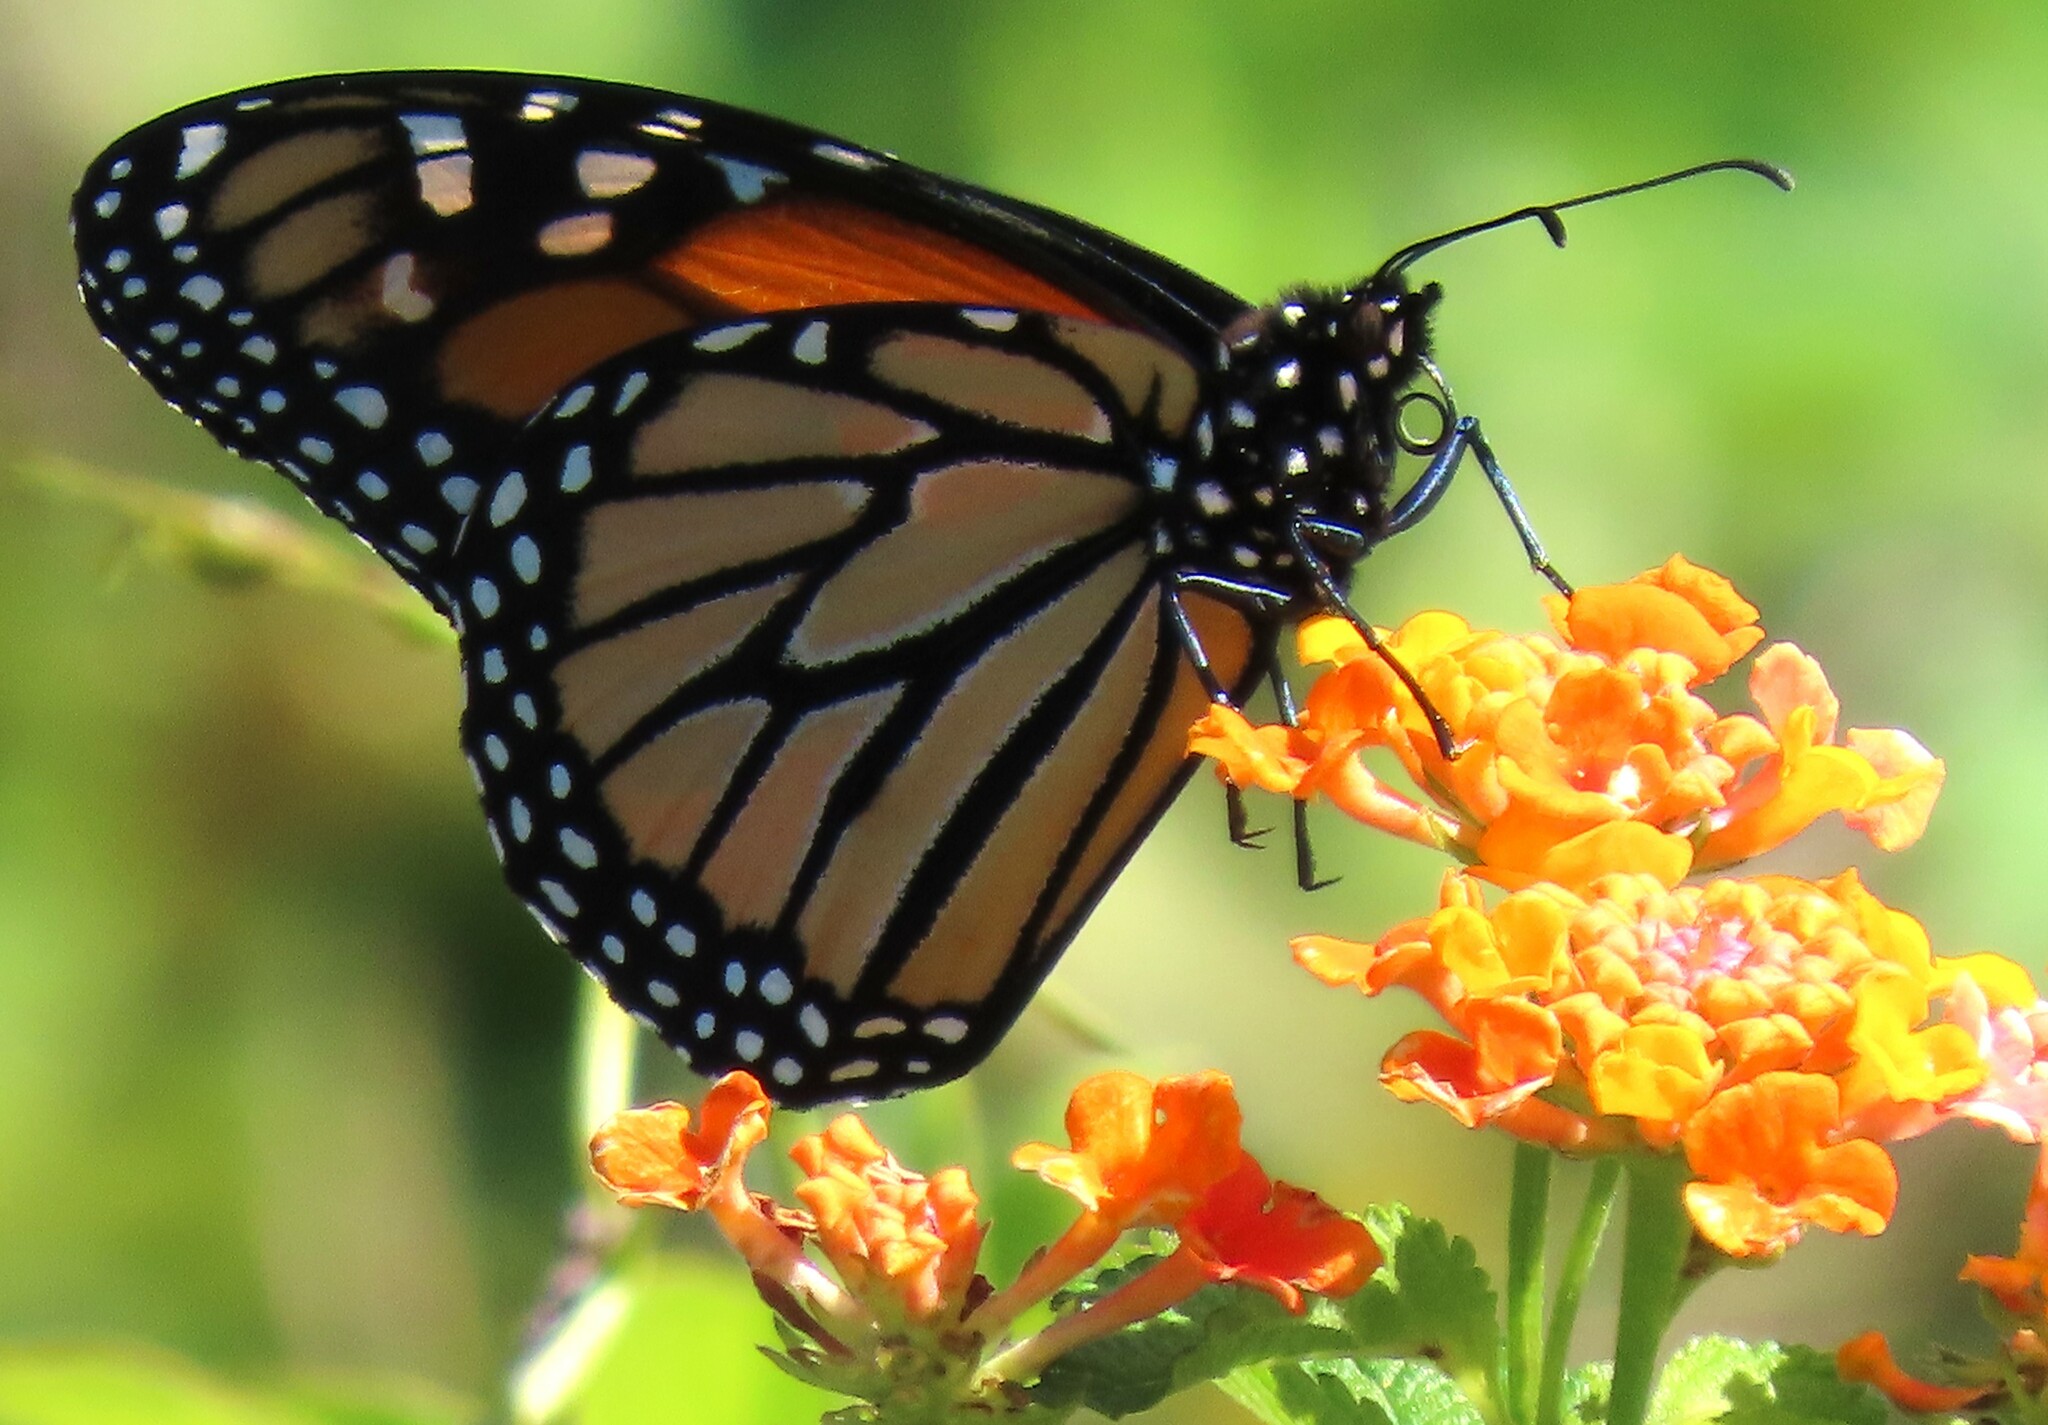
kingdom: Animalia
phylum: Arthropoda
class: Insecta
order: Lepidoptera
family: Nymphalidae
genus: Danaus
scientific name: Danaus plexippus
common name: Monarch
